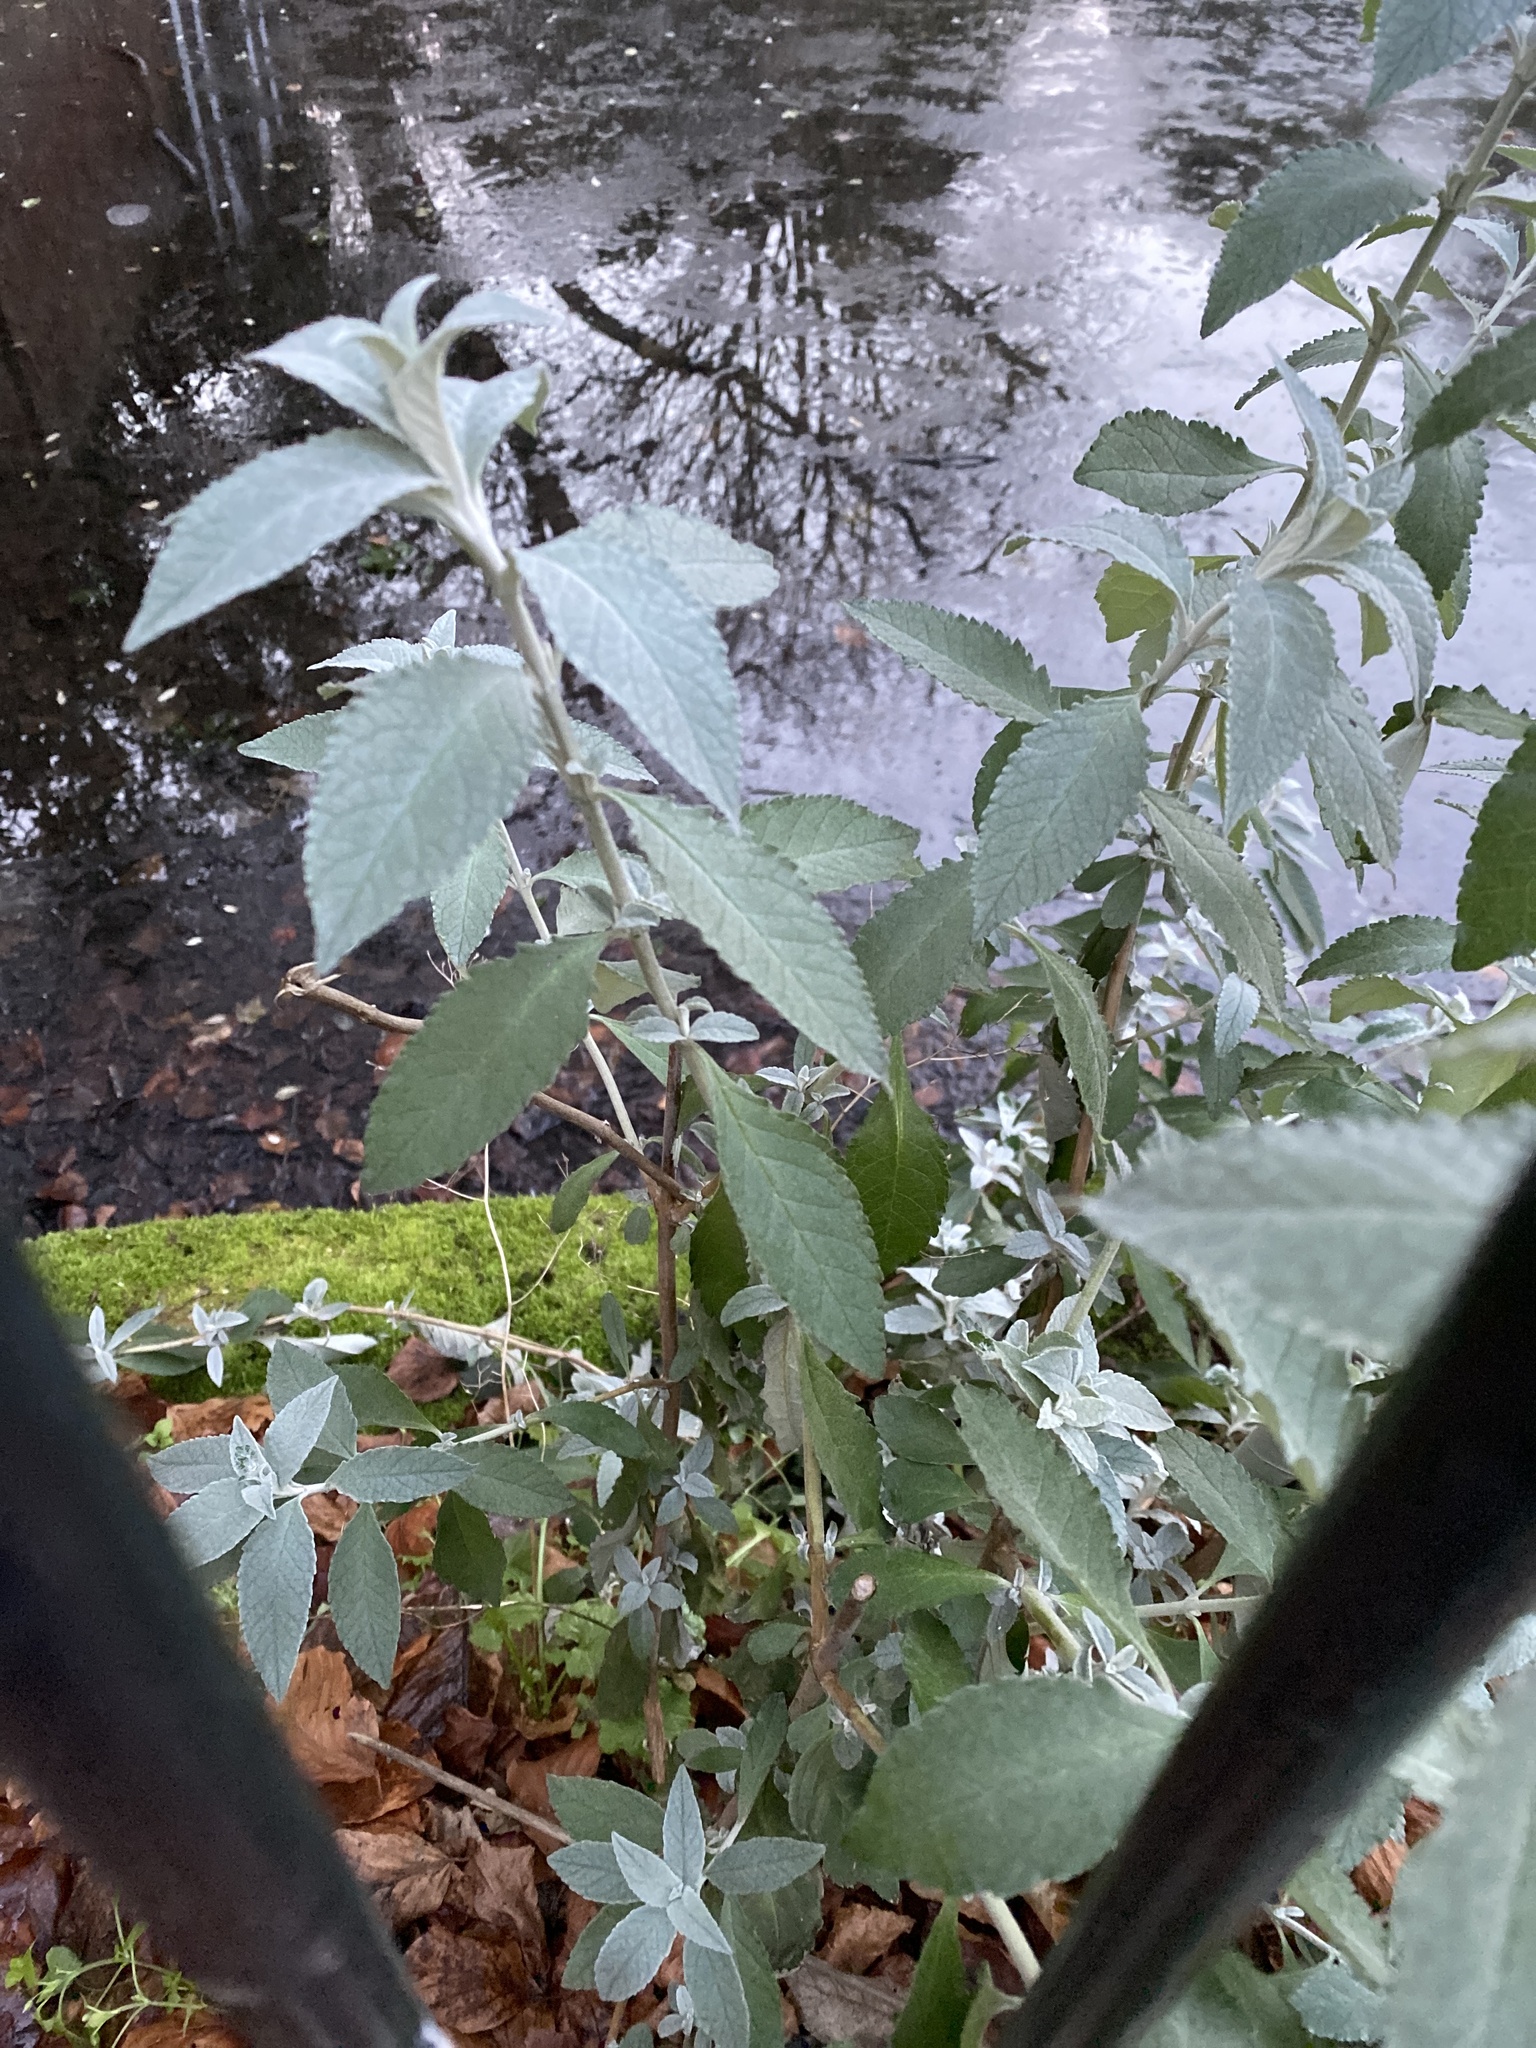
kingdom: Plantae
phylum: Tracheophyta
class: Magnoliopsida
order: Lamiales
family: Scrophulariaceae
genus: Buddleja
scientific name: Buddleja davidii
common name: Butterfly-bush
